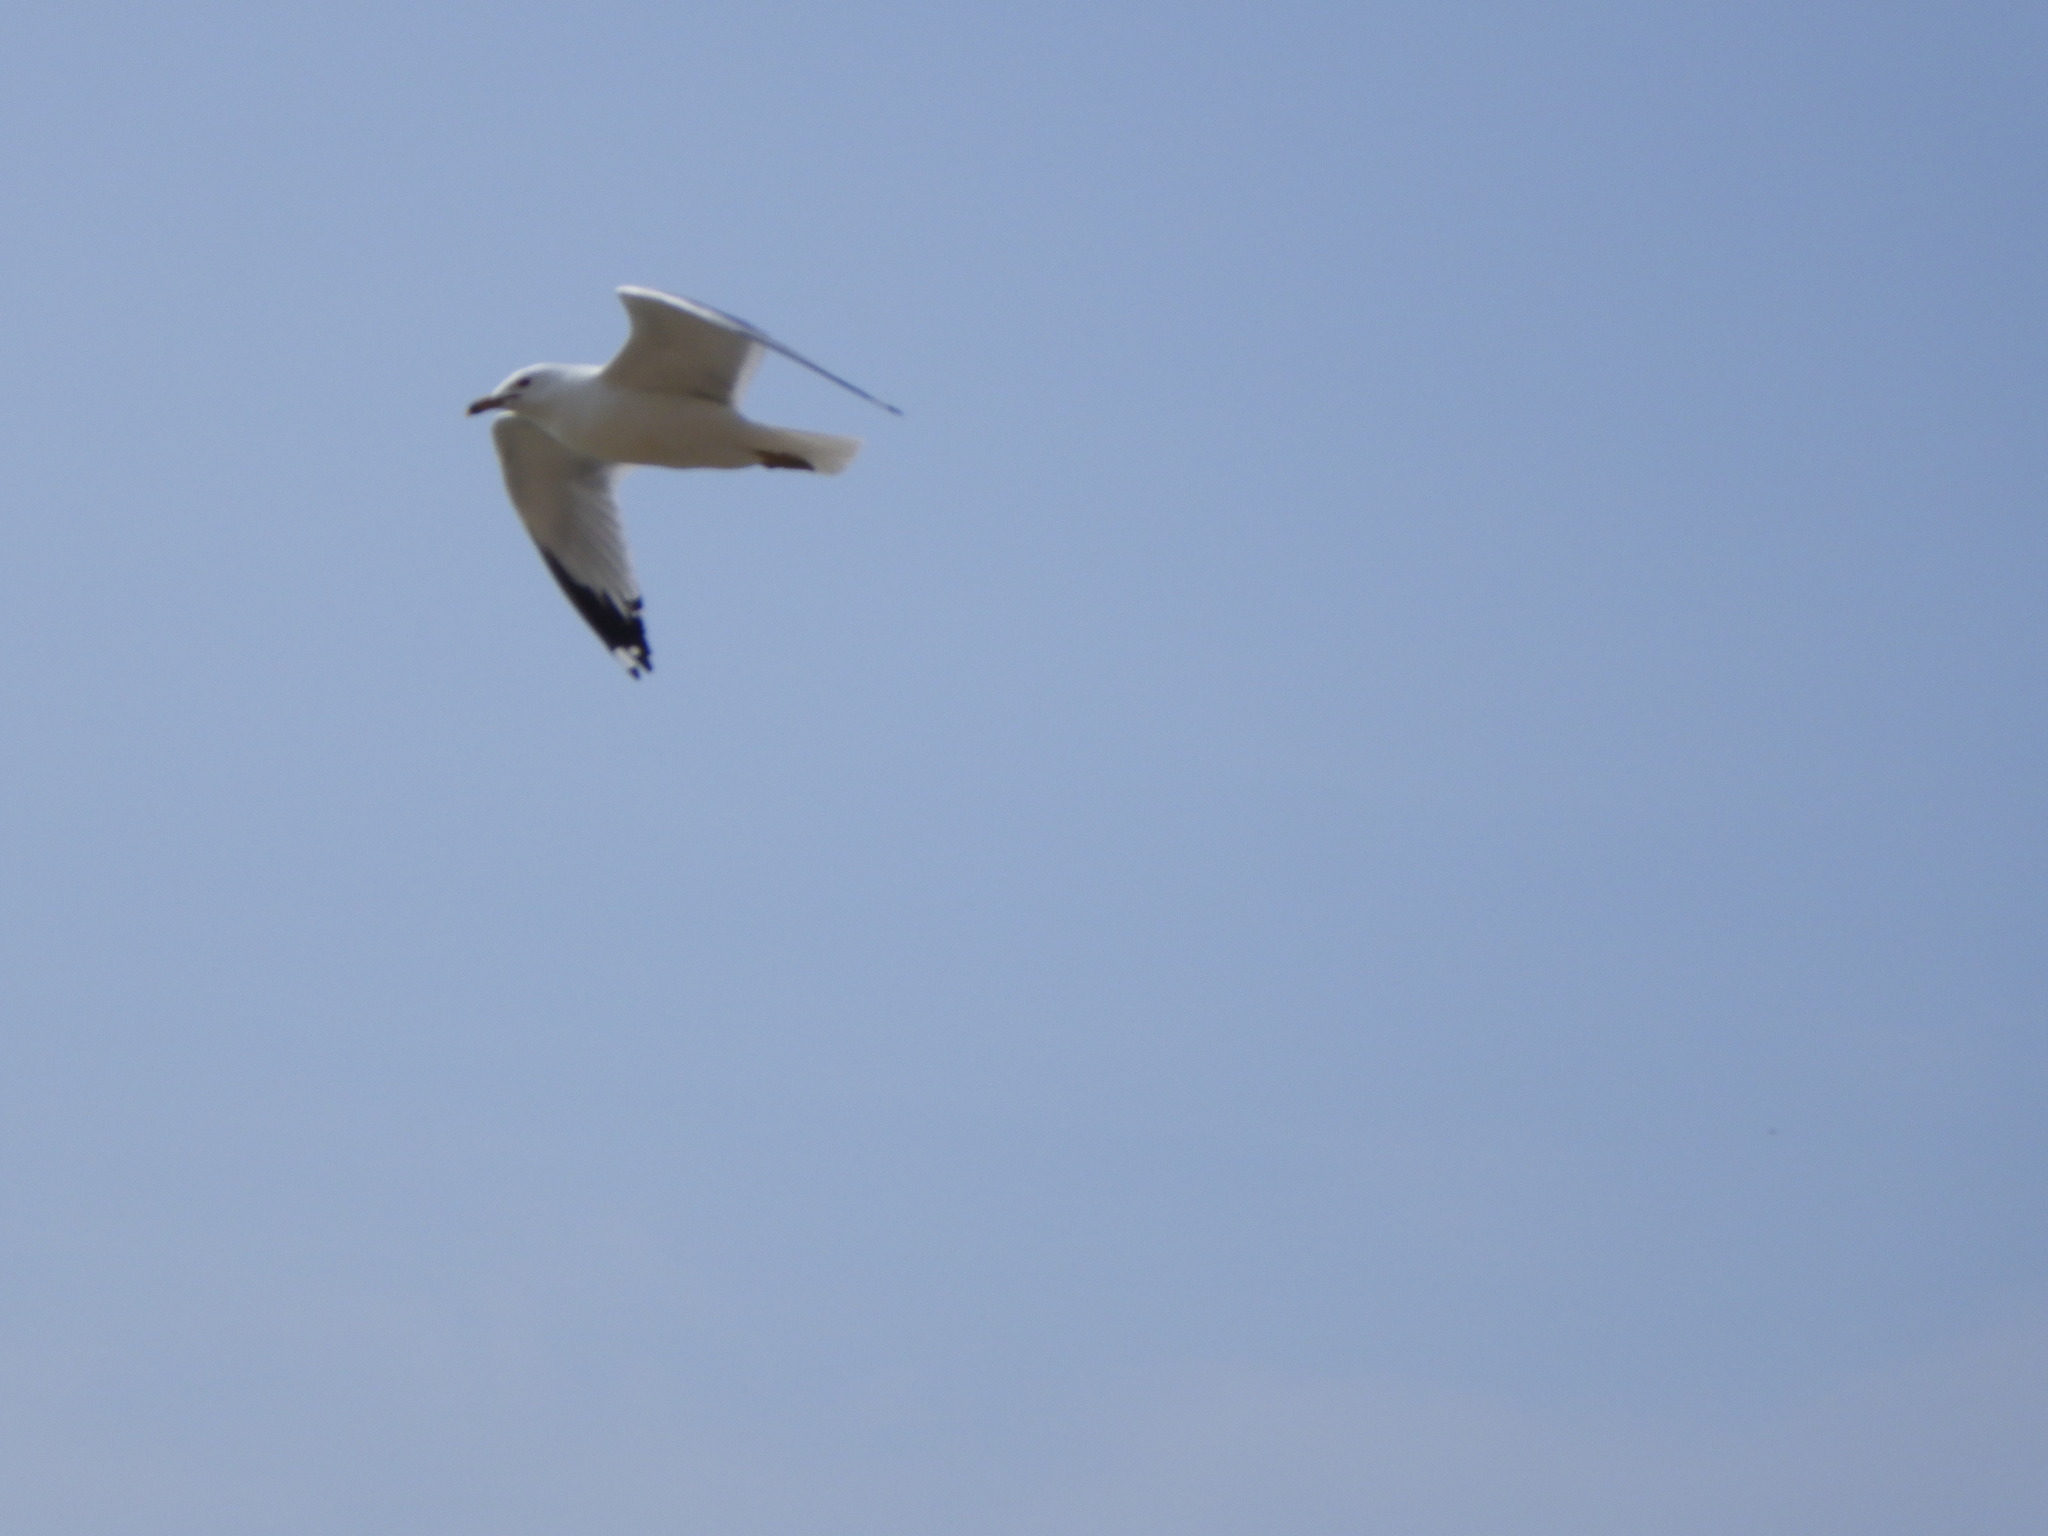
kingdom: Animalia
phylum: Chordata
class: Aves
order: Charadriiformes
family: Laridae
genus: Larus
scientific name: Larus delawarensis
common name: Ring-billed gull
